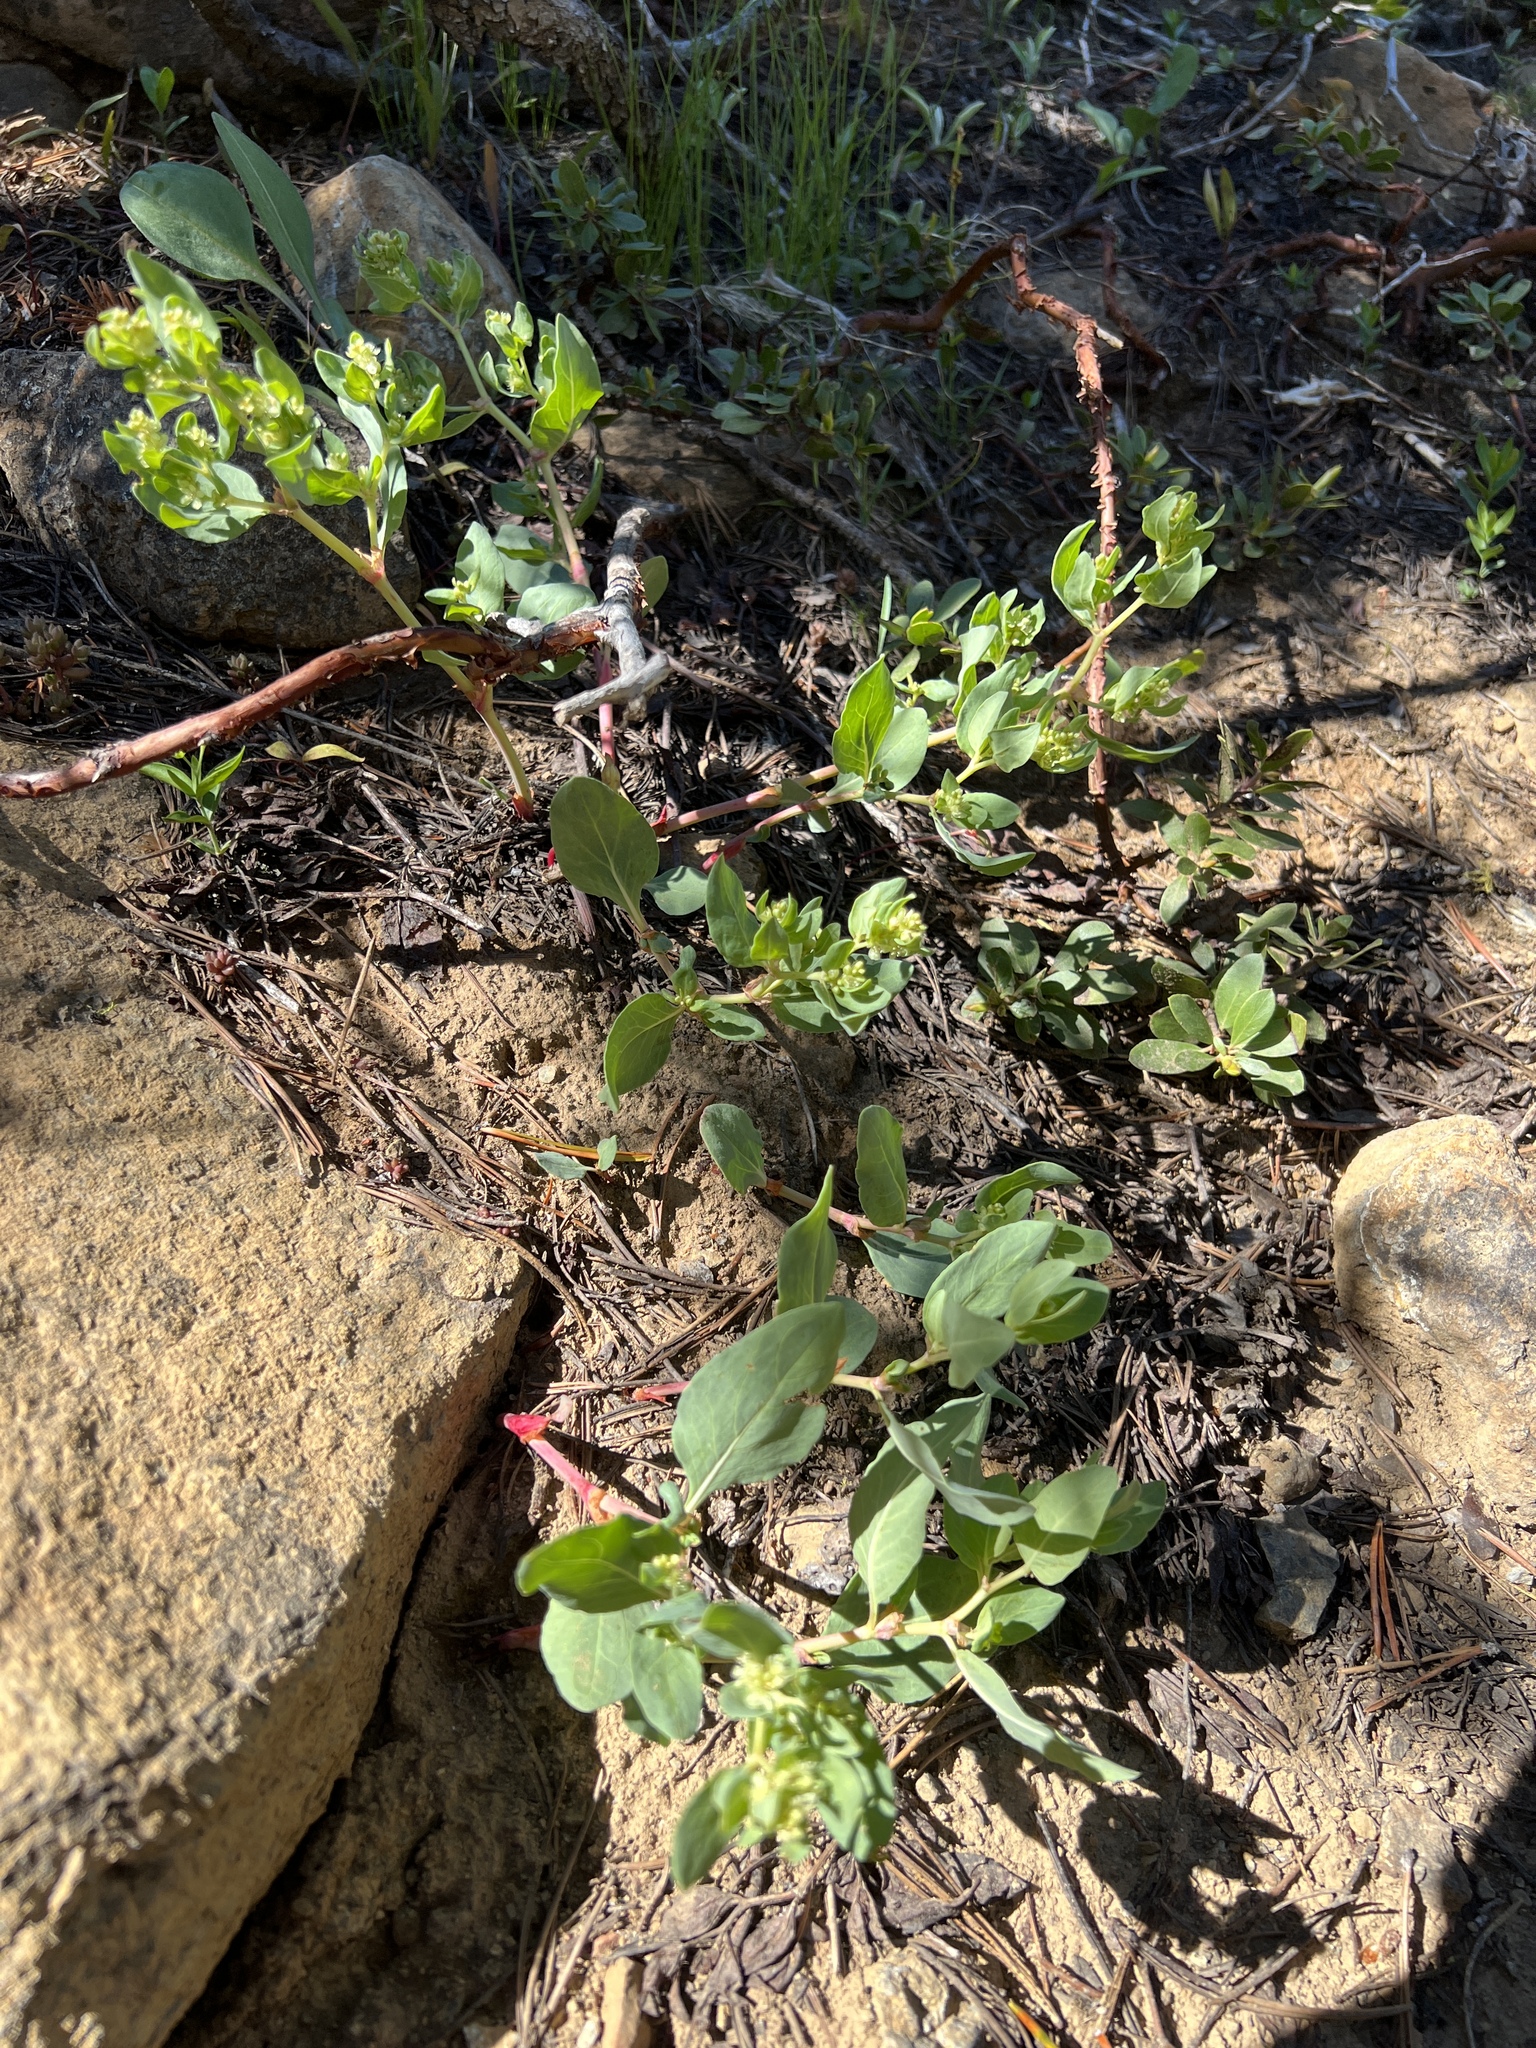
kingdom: Plantae
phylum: Tracheophyta
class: Magnoliopsida
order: Caryophyllales
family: Polygonaceae
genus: Koenigia
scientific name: Koenigia davisiae
